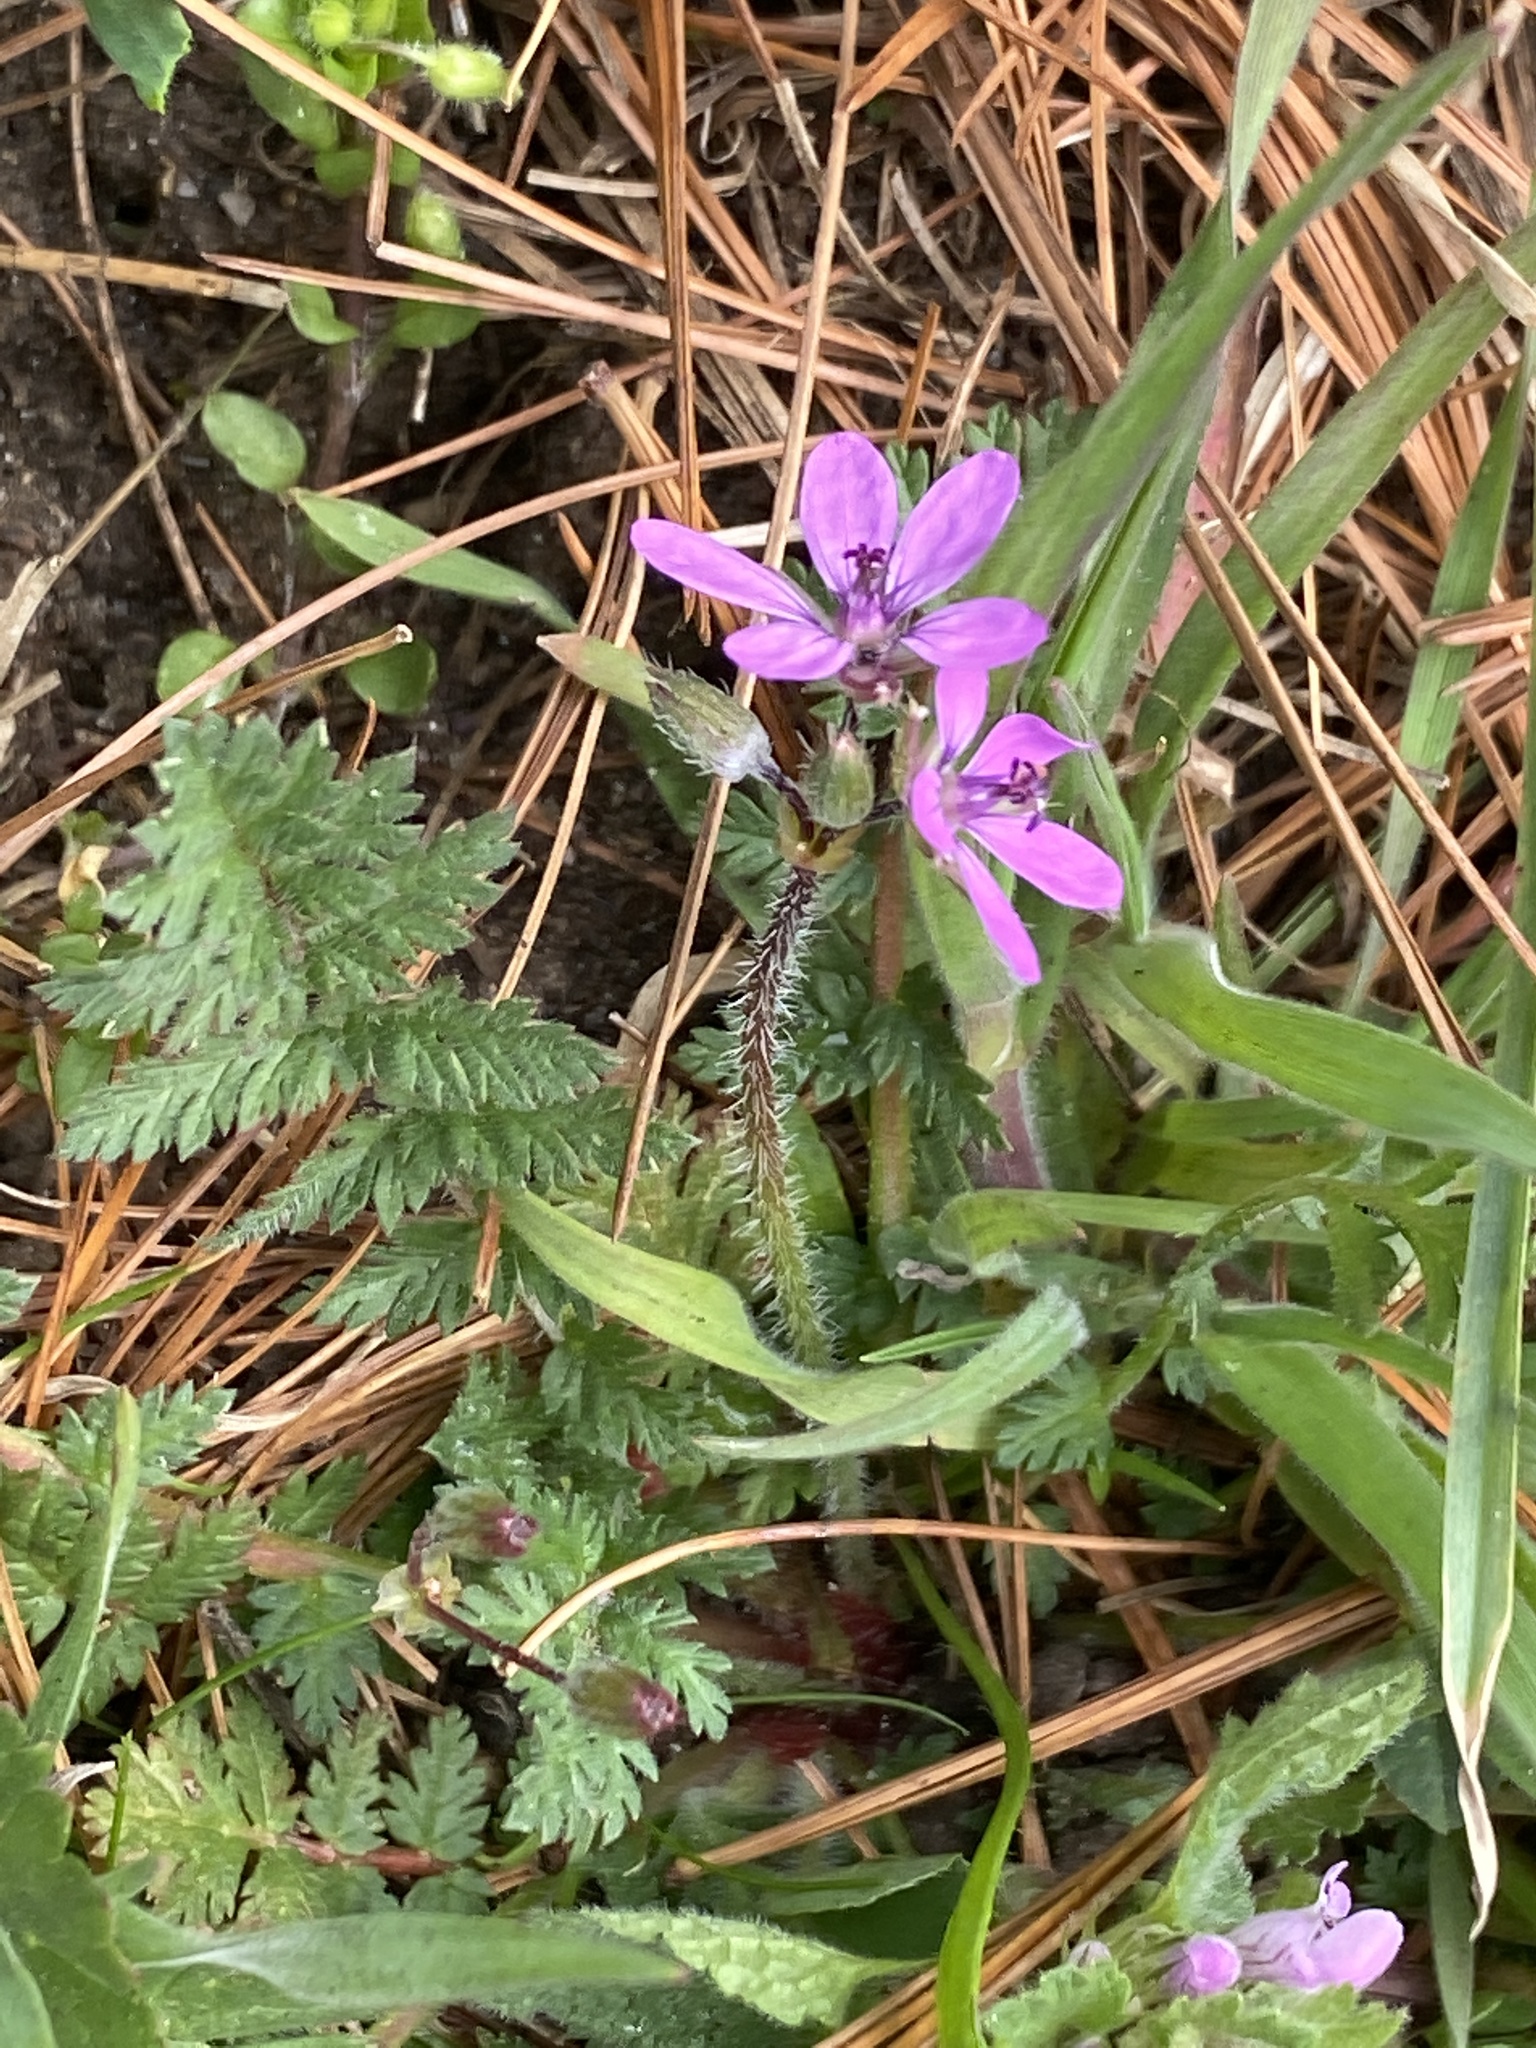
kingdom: Plantae
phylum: Tracheophyta
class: Magnoliopsida
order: Geraniales
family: Geraniaceae
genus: Erodium
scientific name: Erodium cicutarium
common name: Common stork's-bill
